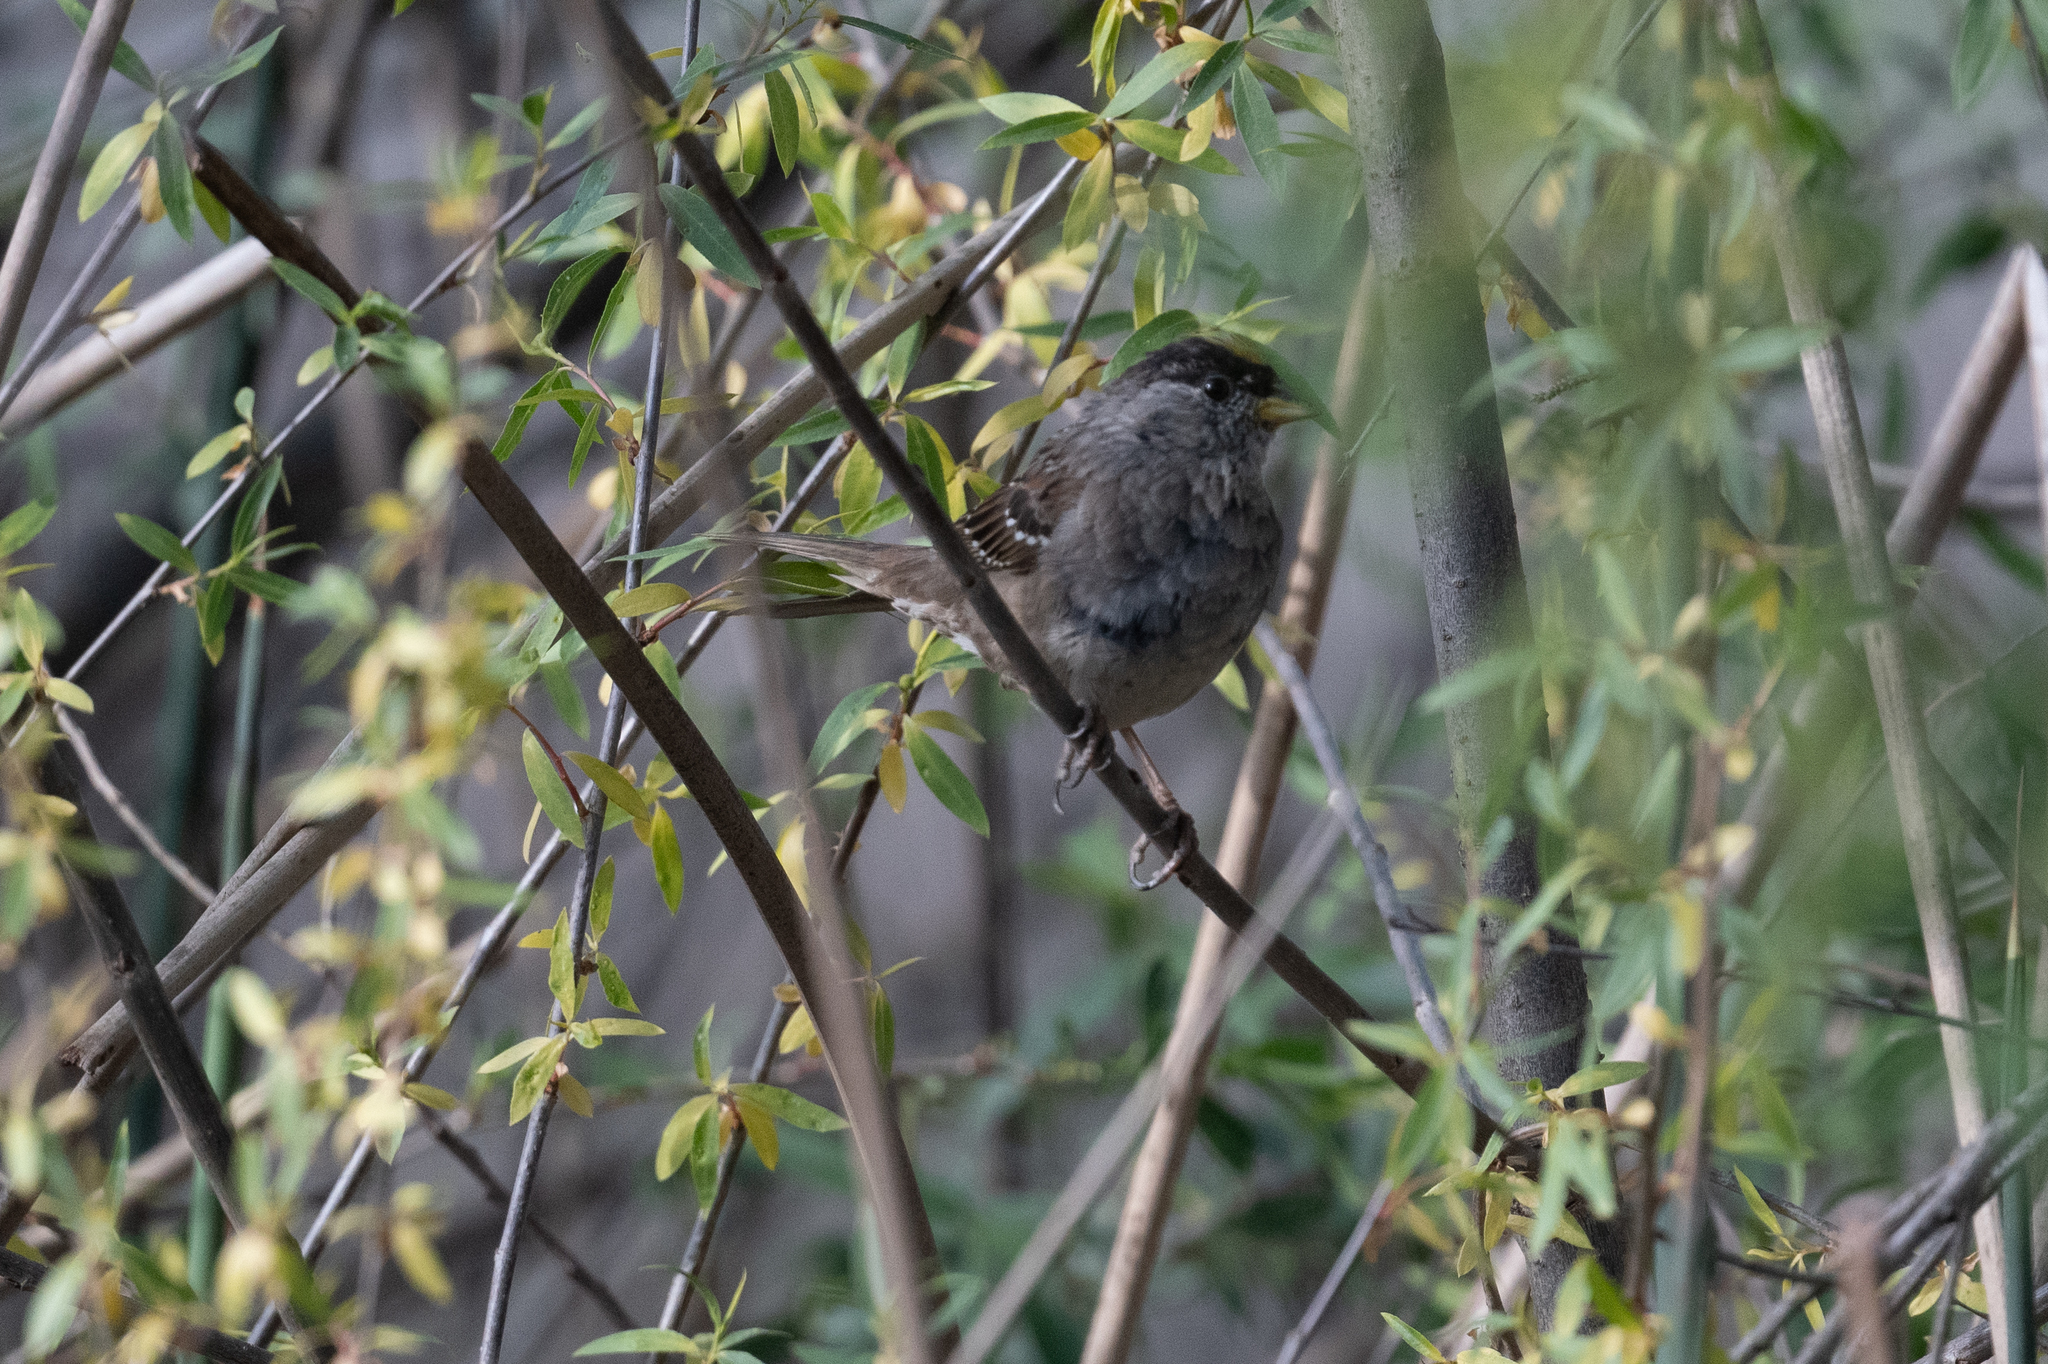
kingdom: Animalia
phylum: Chordata
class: Aves
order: Passeriformes
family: Passerellidae
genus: Zonotrichia
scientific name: Zonotrichia atricapilla
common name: Golden-crowned sparrow
